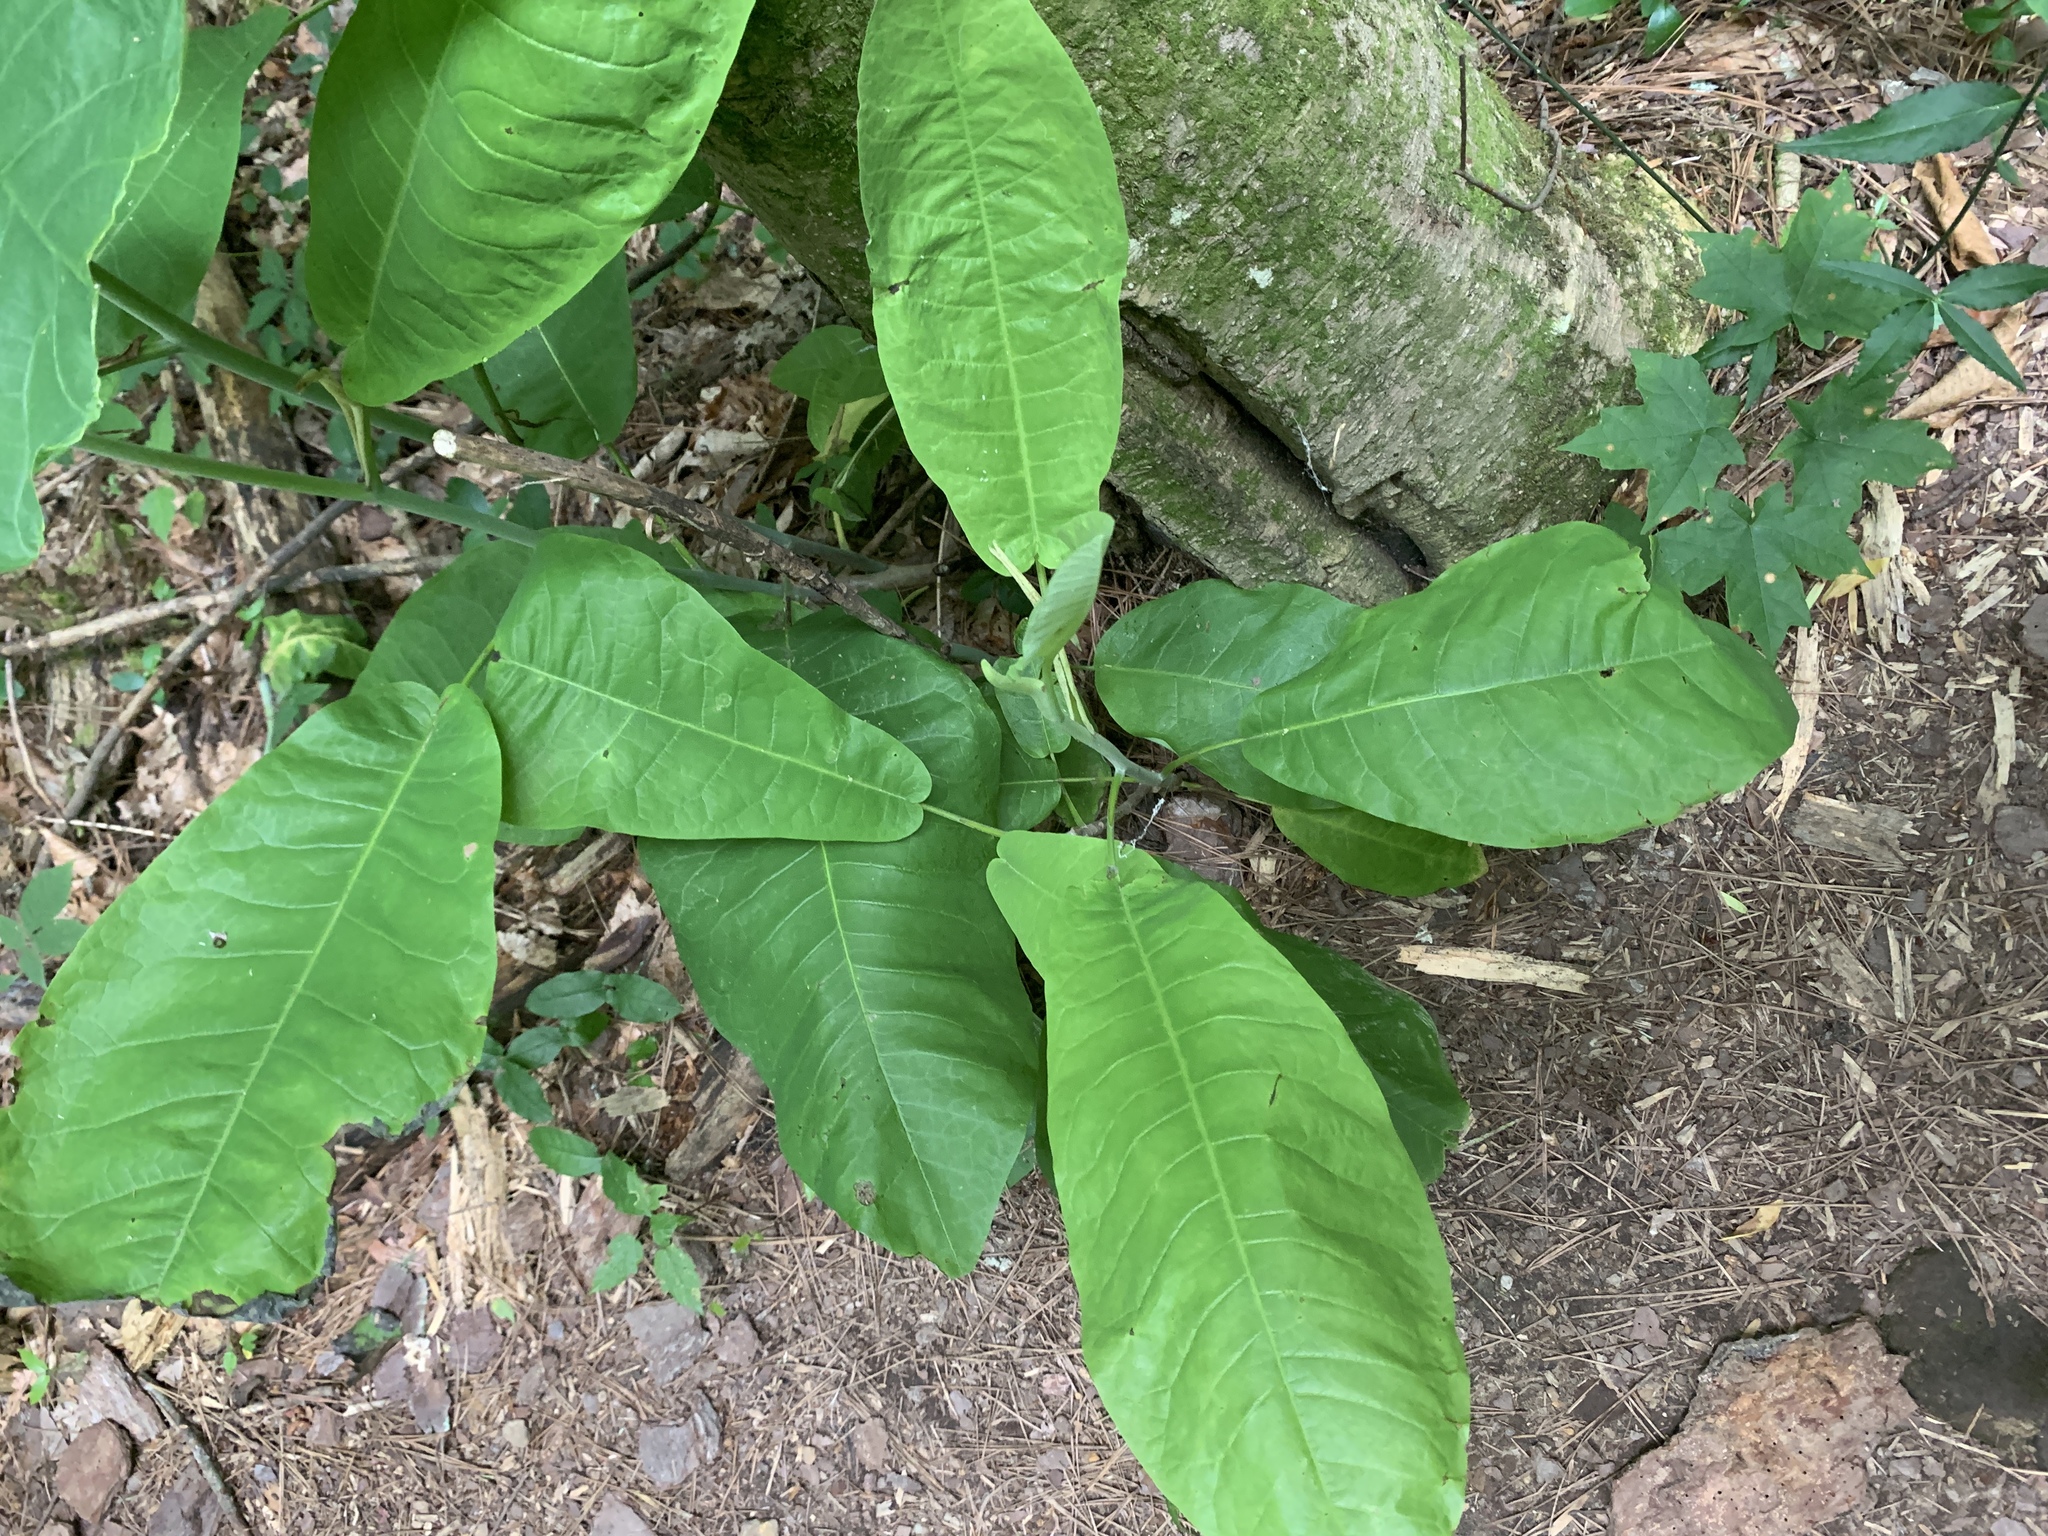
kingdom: Plantae
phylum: Tracheophyta
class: Magnoliopsida
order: Magnoliales
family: Magnoliaceae
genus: Magnolia
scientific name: Magnolia macrophylla
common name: Big-leaf magnolia
